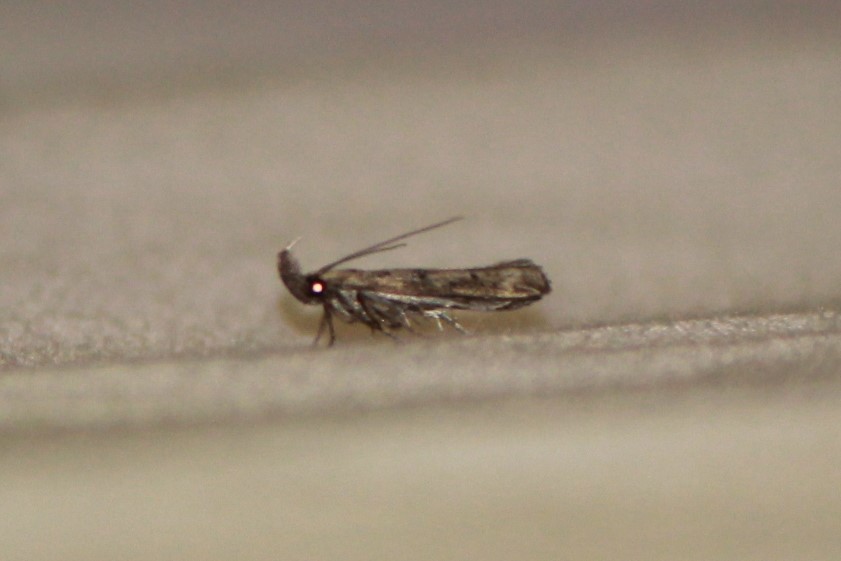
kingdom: Animalia
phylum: Arthropoda
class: Insecta
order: Lepidoptera
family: Gelechiidae
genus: Dichomeris
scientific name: Dichomeris inversella
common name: Inverse dichomeris moth
